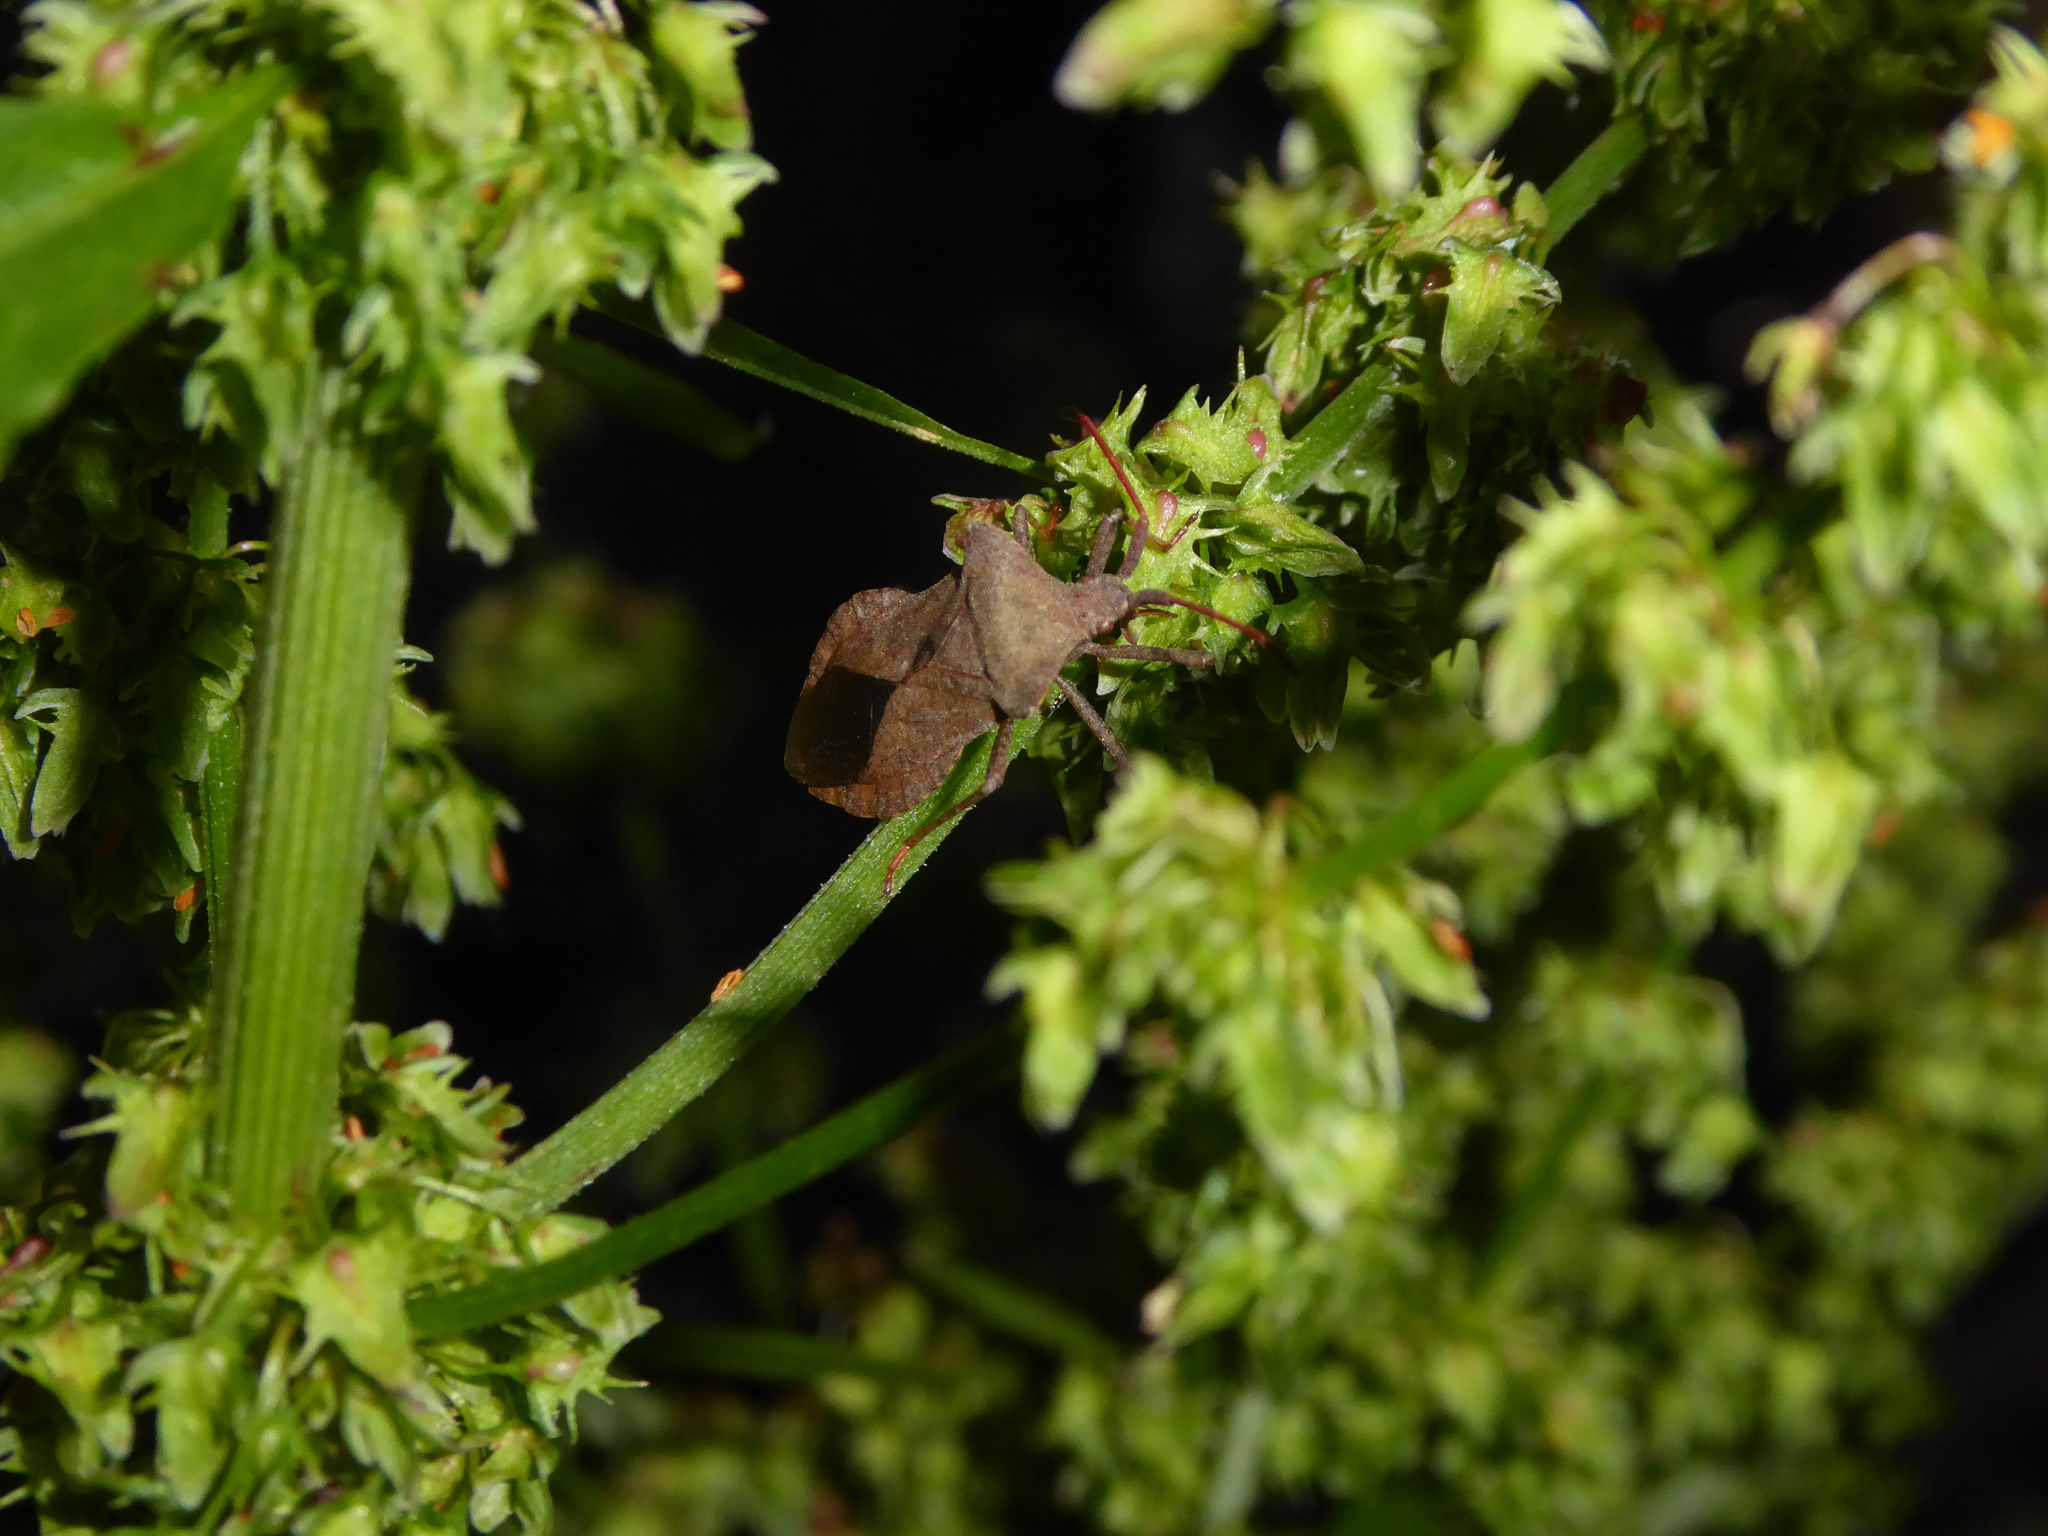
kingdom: Animalia
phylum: Arthropoda
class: Insecta
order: Hemiptera
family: Coreidae
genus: Coreus
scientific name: Coreus marginatus
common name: Dock bug
